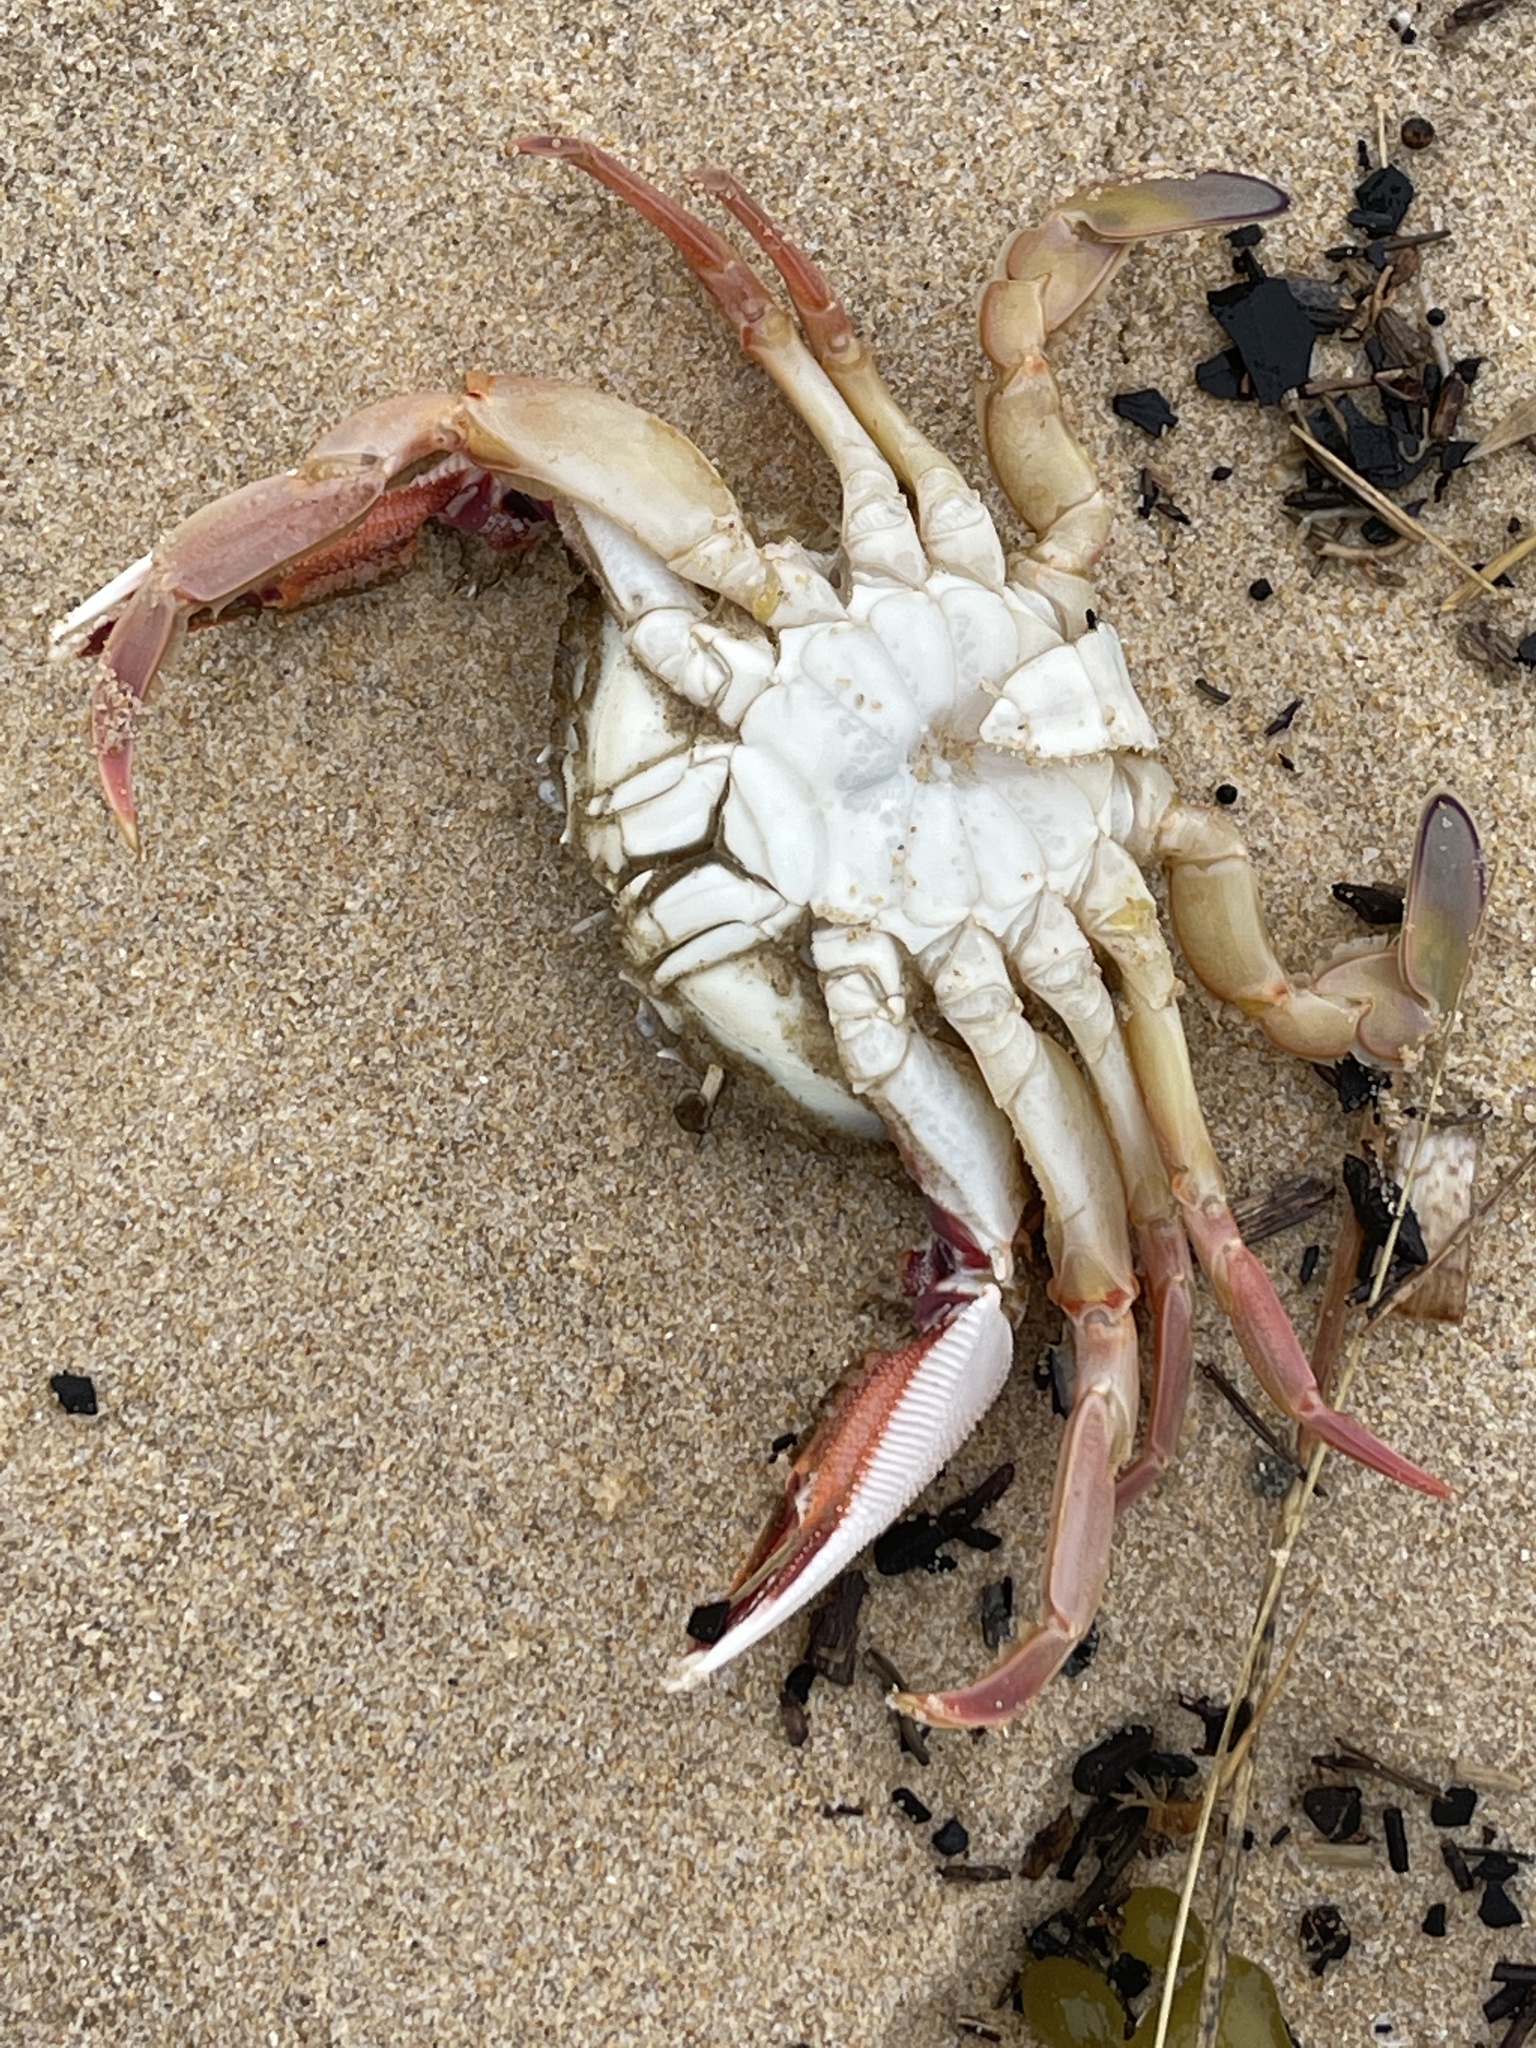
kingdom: Animalia
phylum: Arthropoda
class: Malacostraca
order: Decapoda
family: Ovalipidae
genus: Ovalipes
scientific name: Ovalipes australiensis
